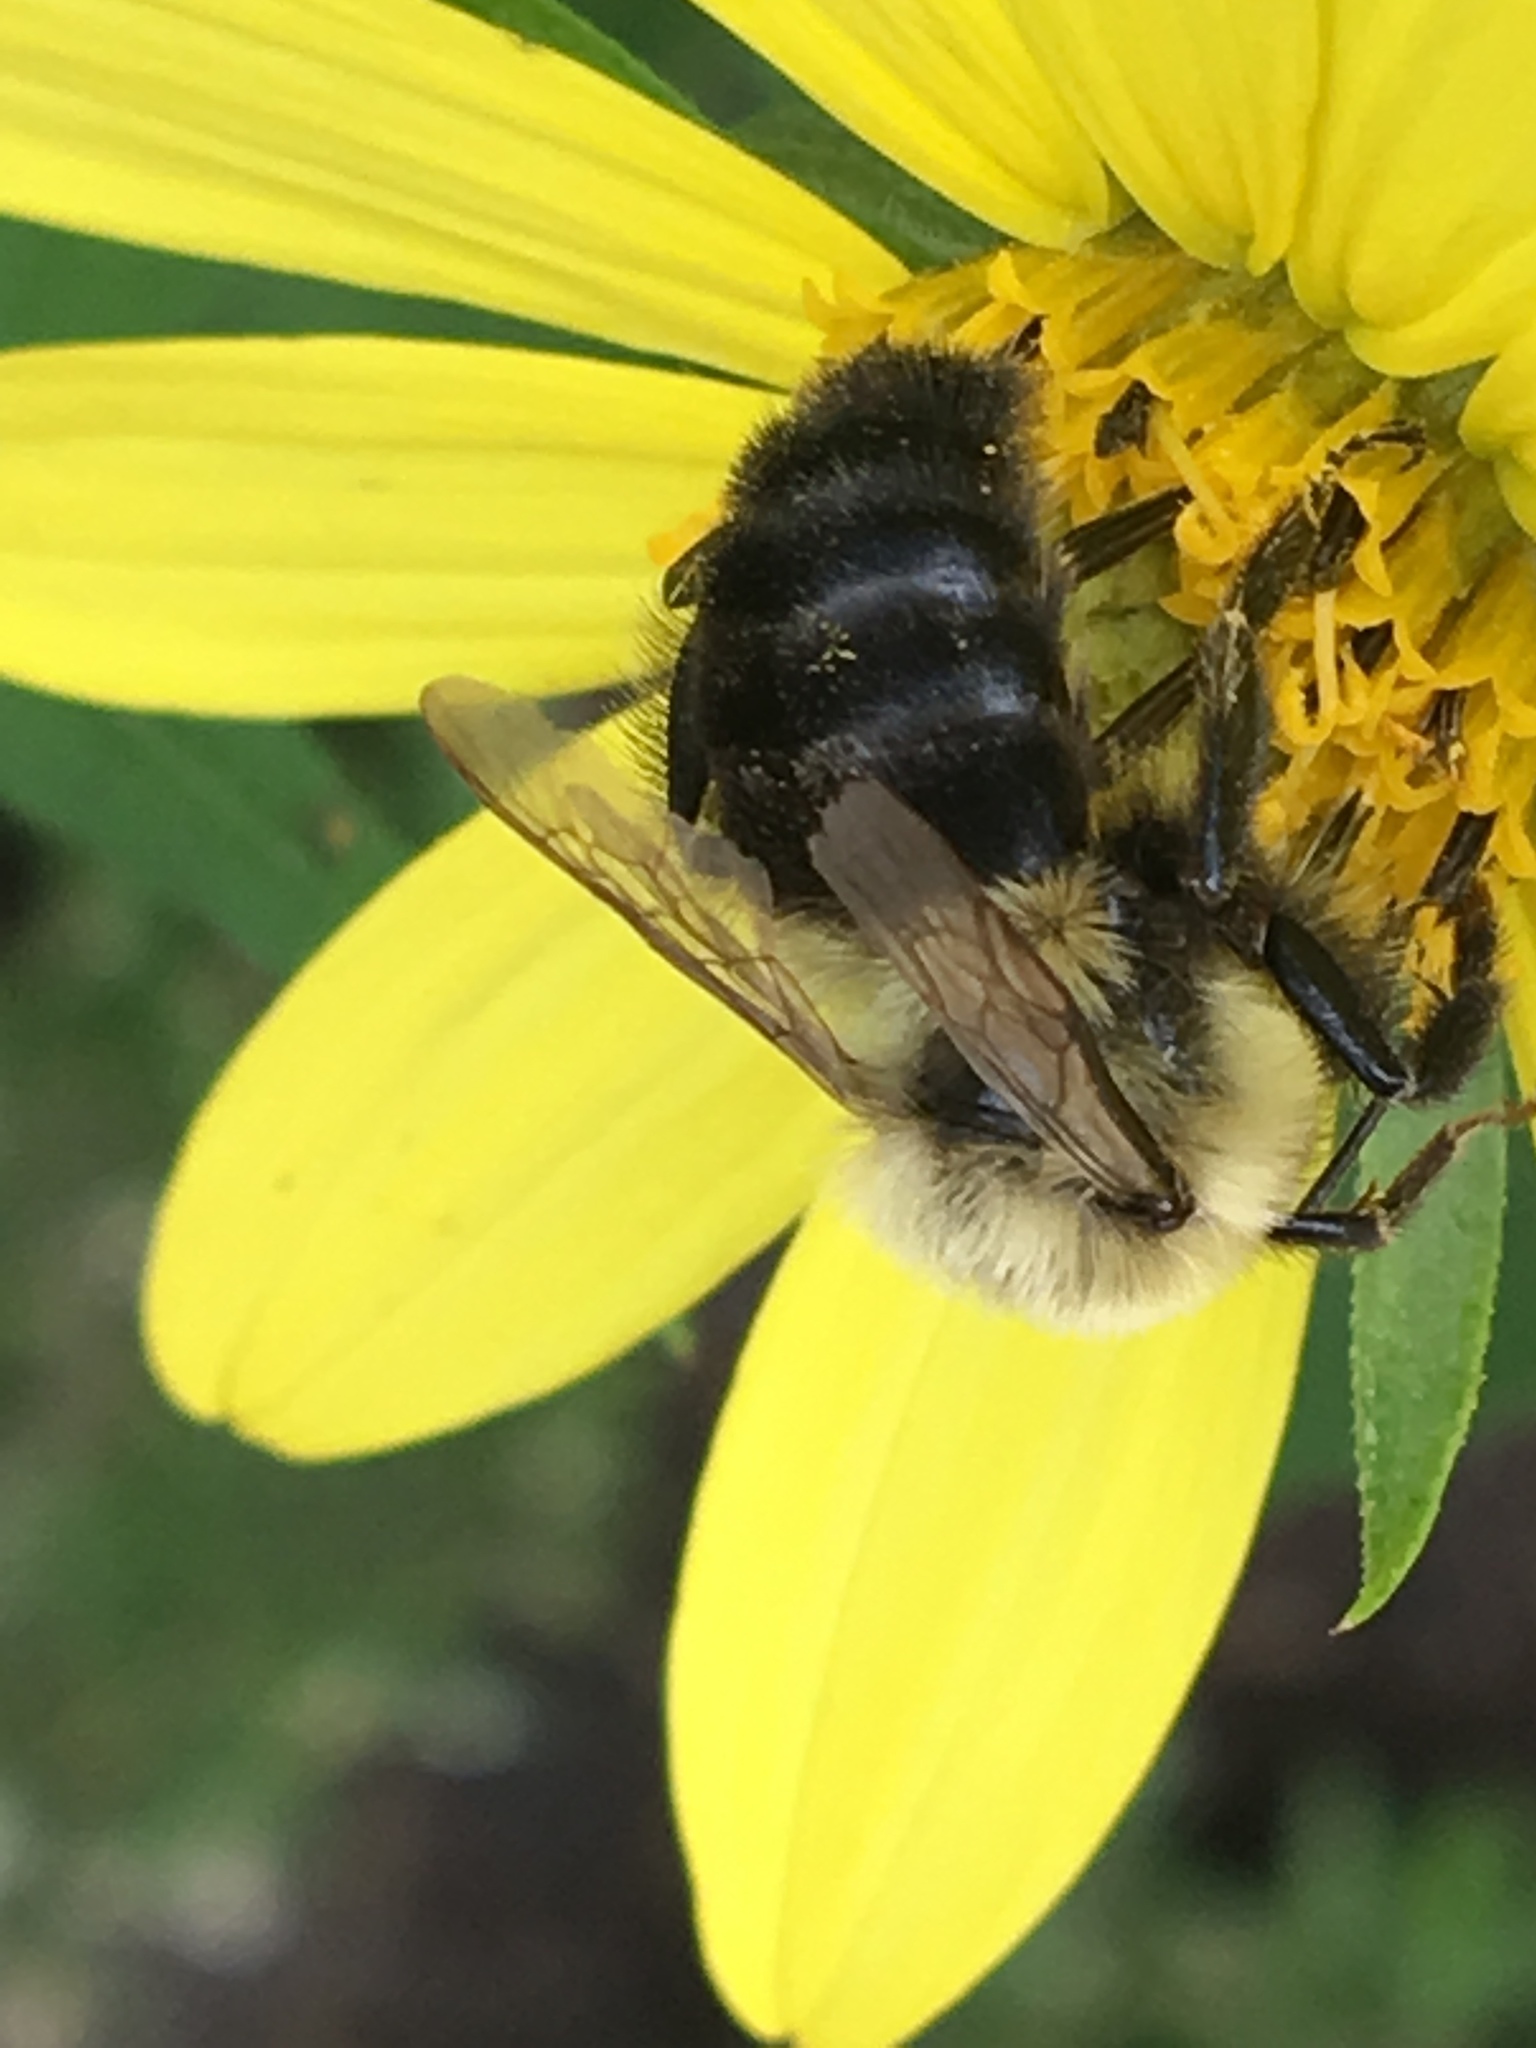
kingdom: Animalia
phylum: Arthropoda
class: Insecta
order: Hymenoptera
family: Apidae
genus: Bombus
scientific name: Bombus impatiens
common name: Common eastern bumble bee
